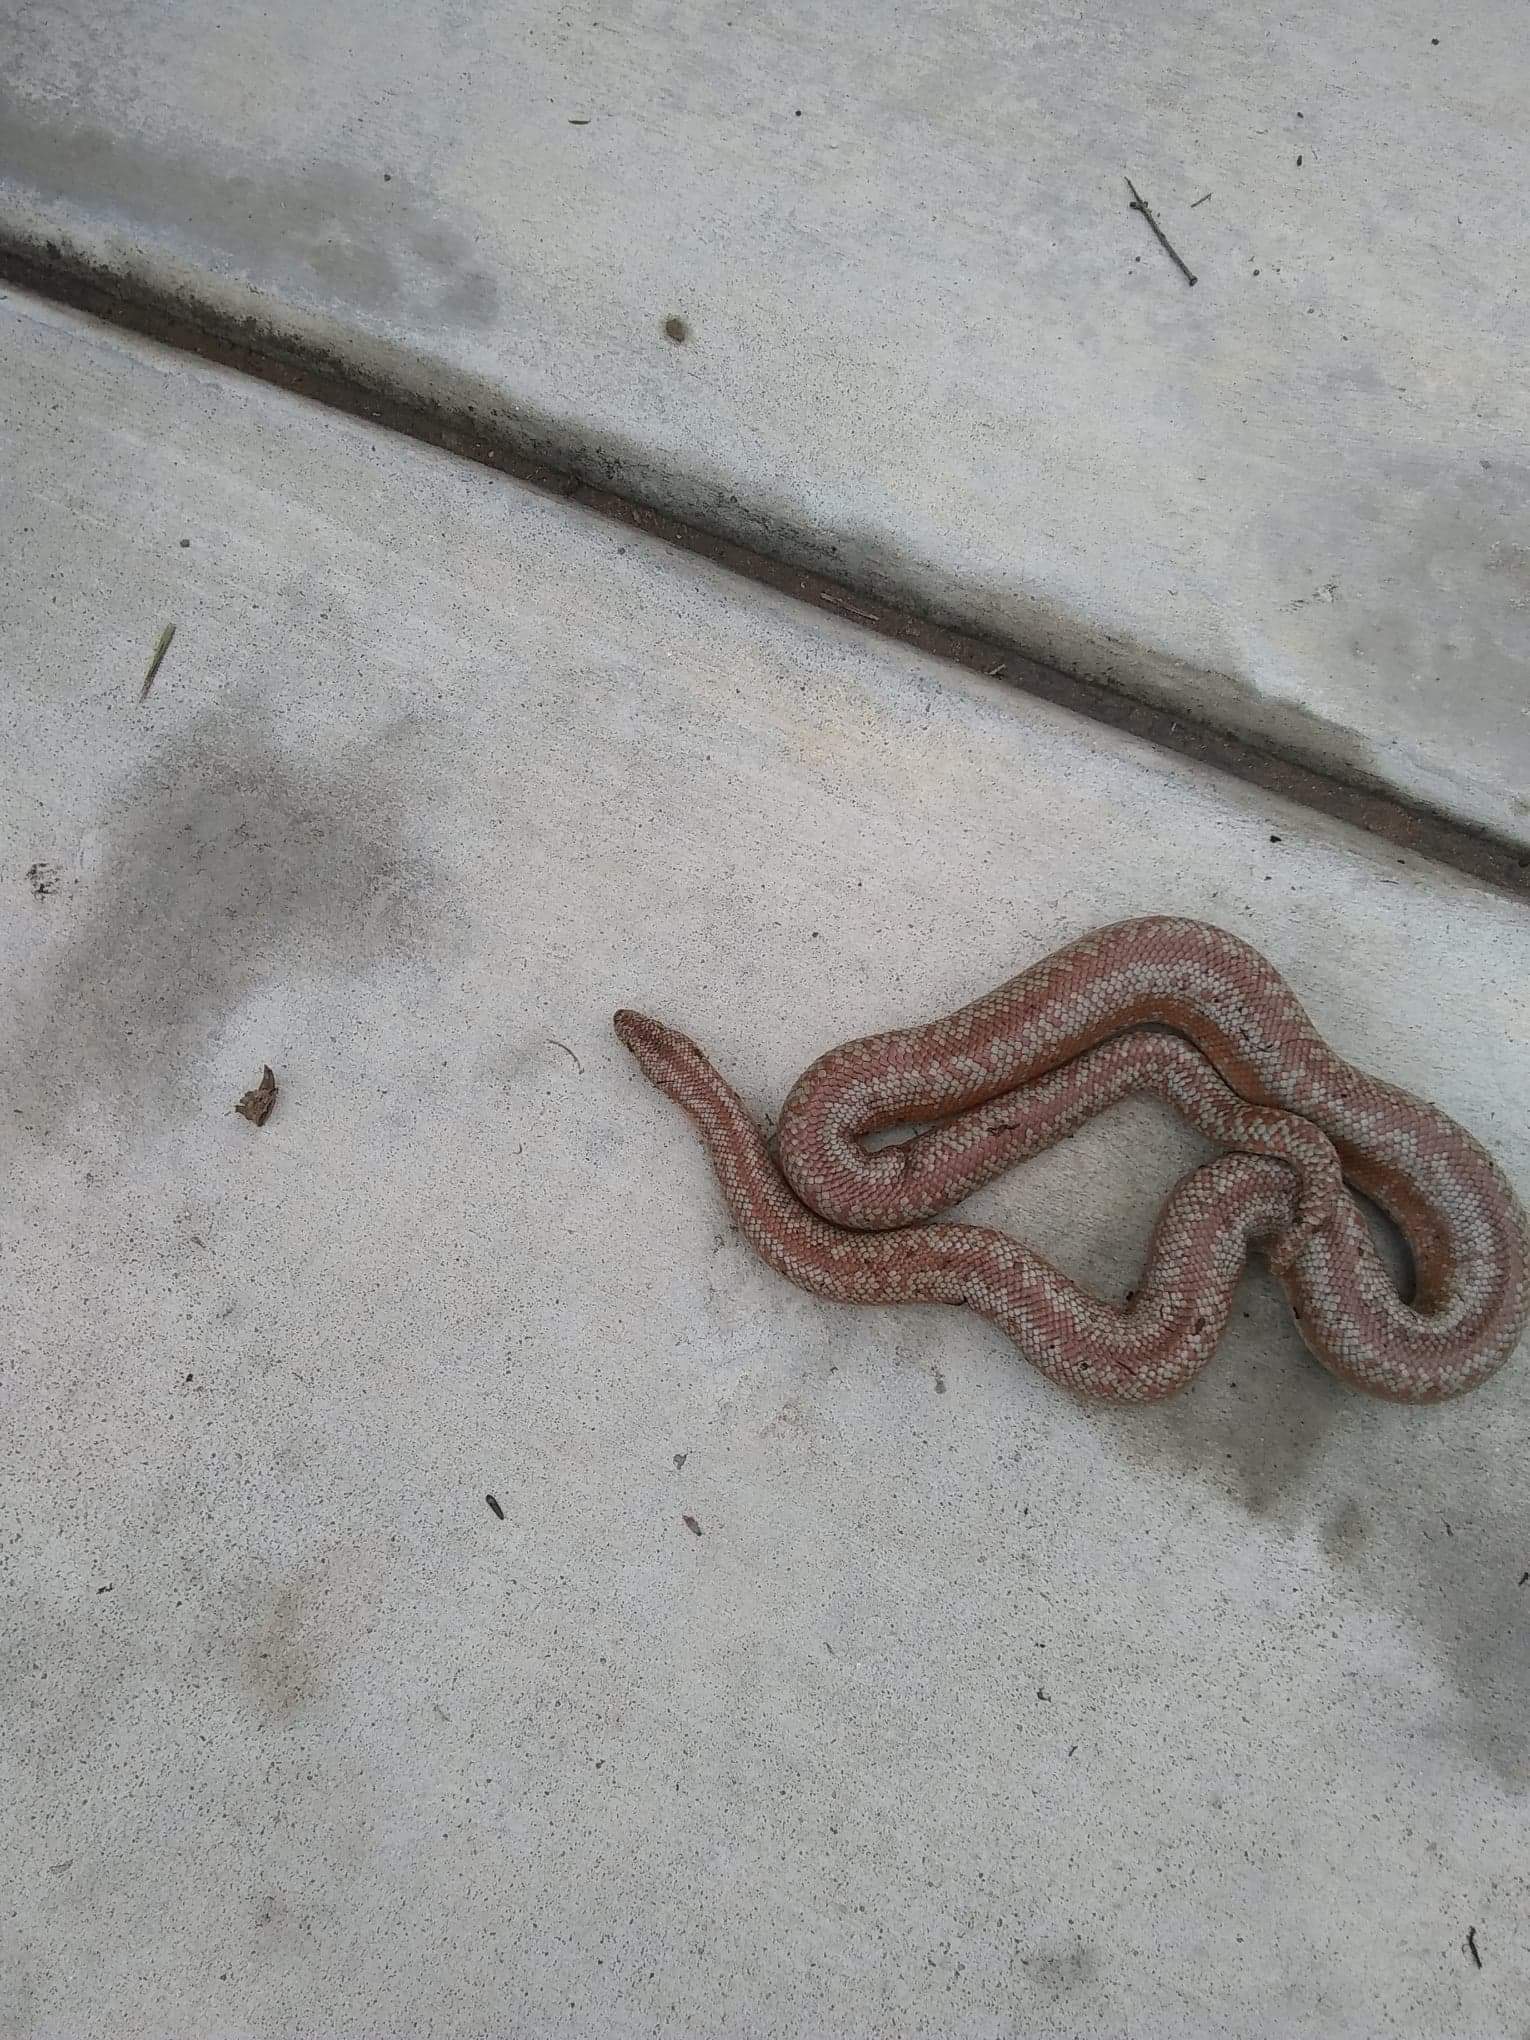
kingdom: Animalia
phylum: Chordata
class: Squamata
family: Boidae
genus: Lichanura
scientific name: Lichanura orcutti
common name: Northern three-lined boa
